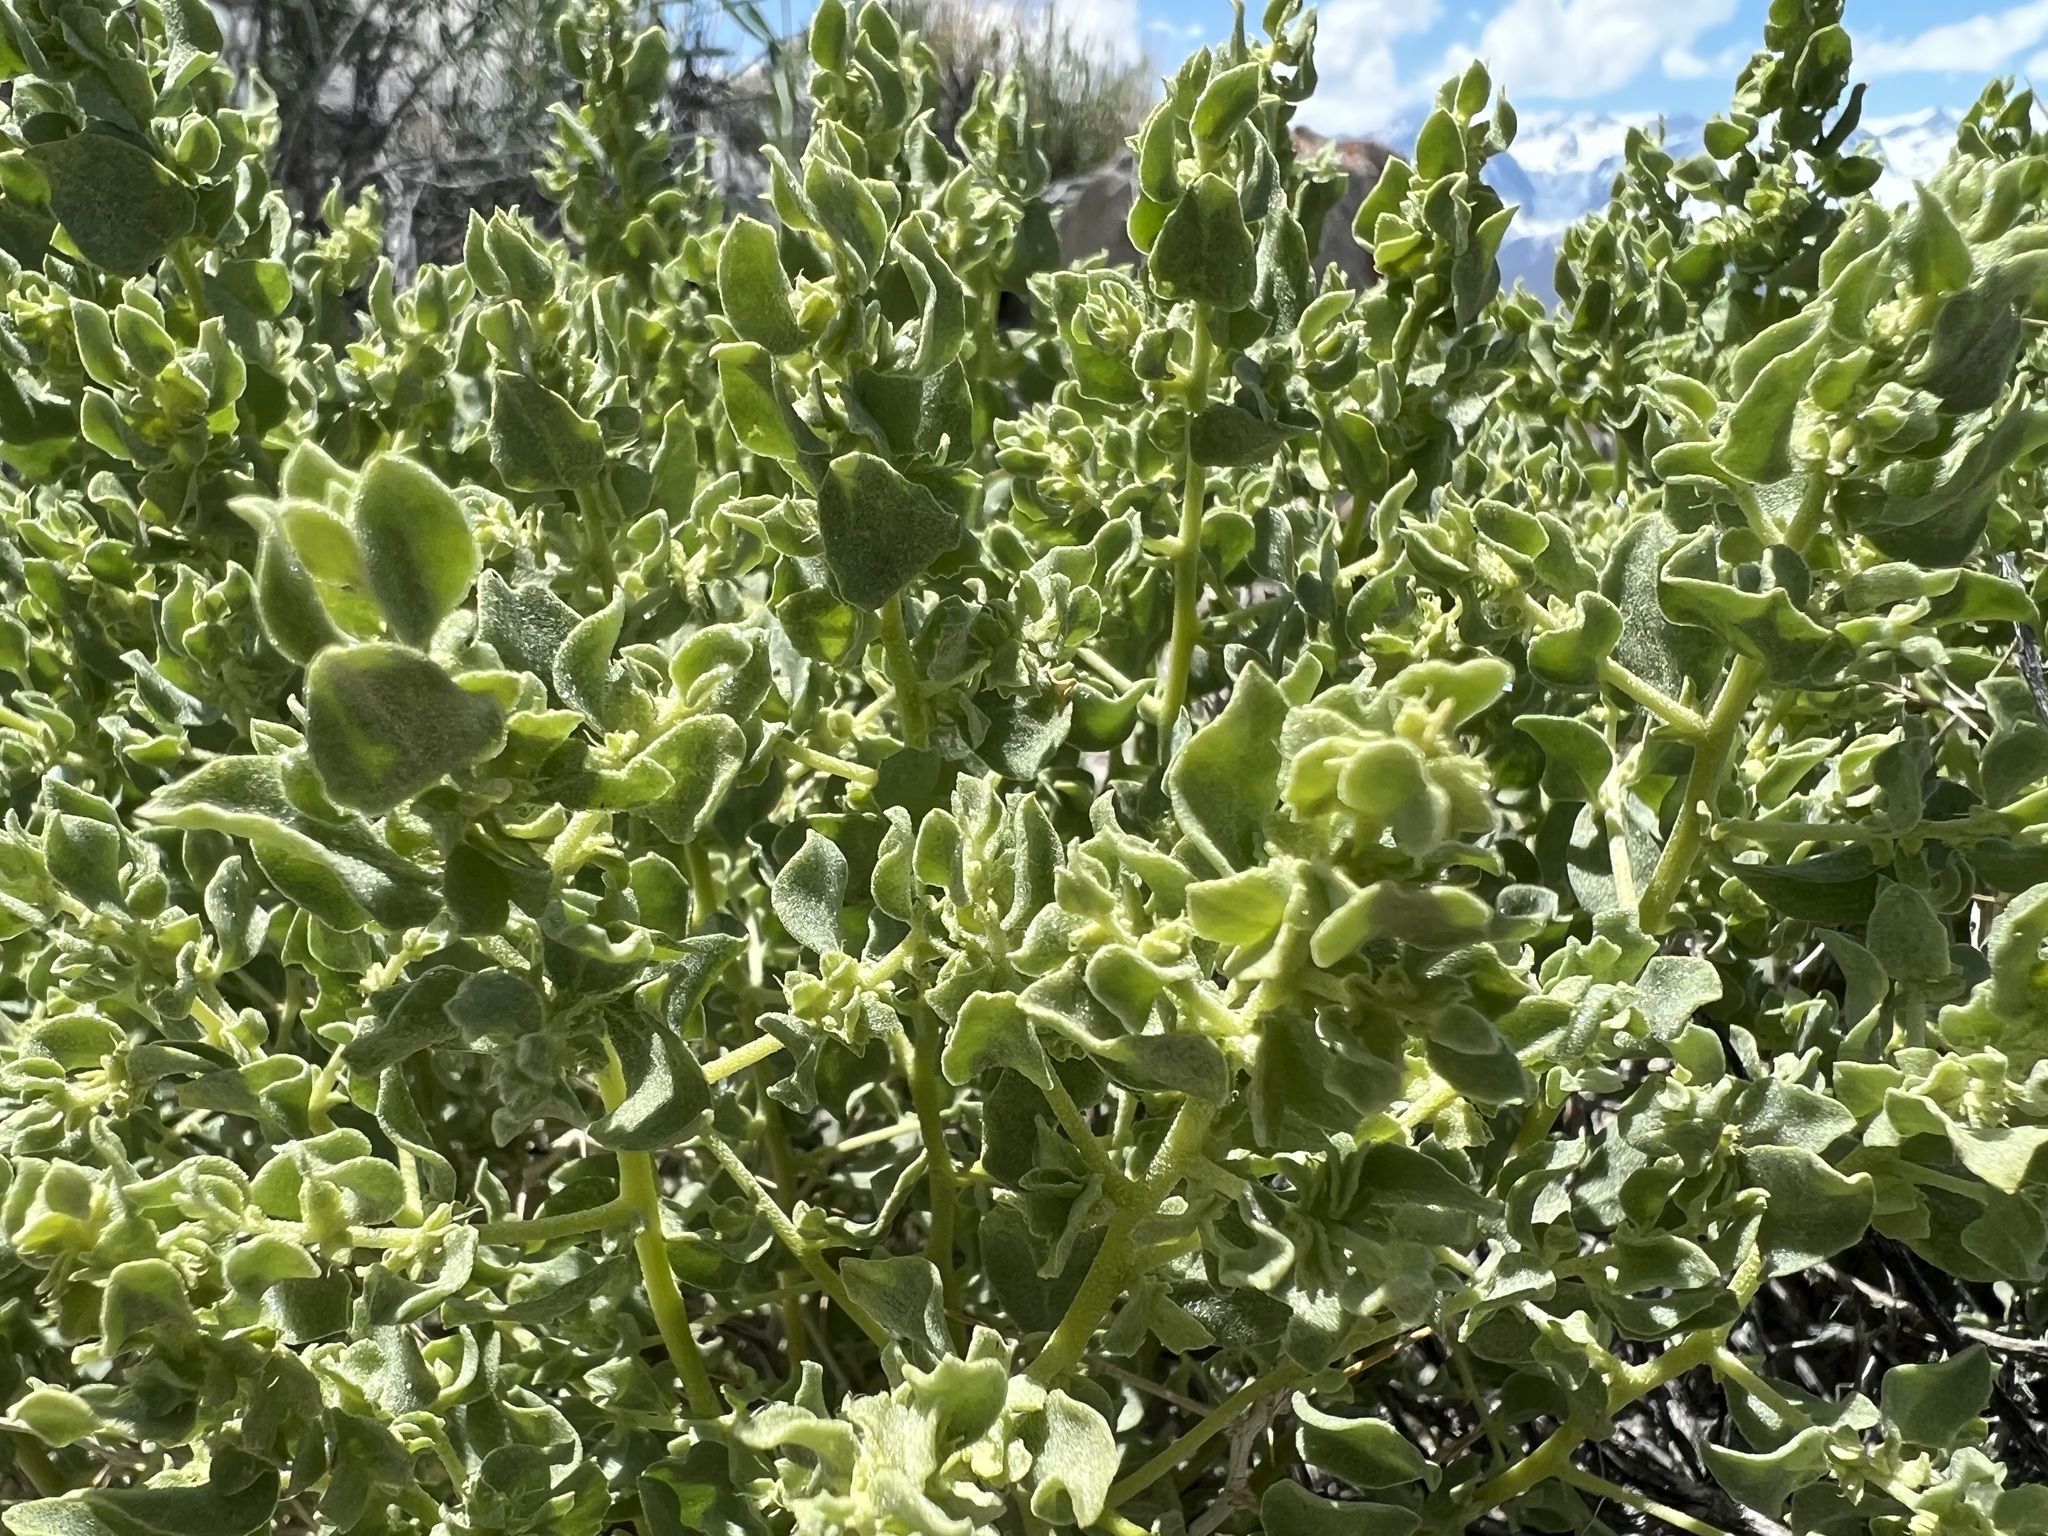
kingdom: Plantae
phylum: Tracheophyta
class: Magnoliopsida
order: Caryophyllales
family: Amaranthaceae
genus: Atriplex
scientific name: Atriplex confertifolia
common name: Shadscale
